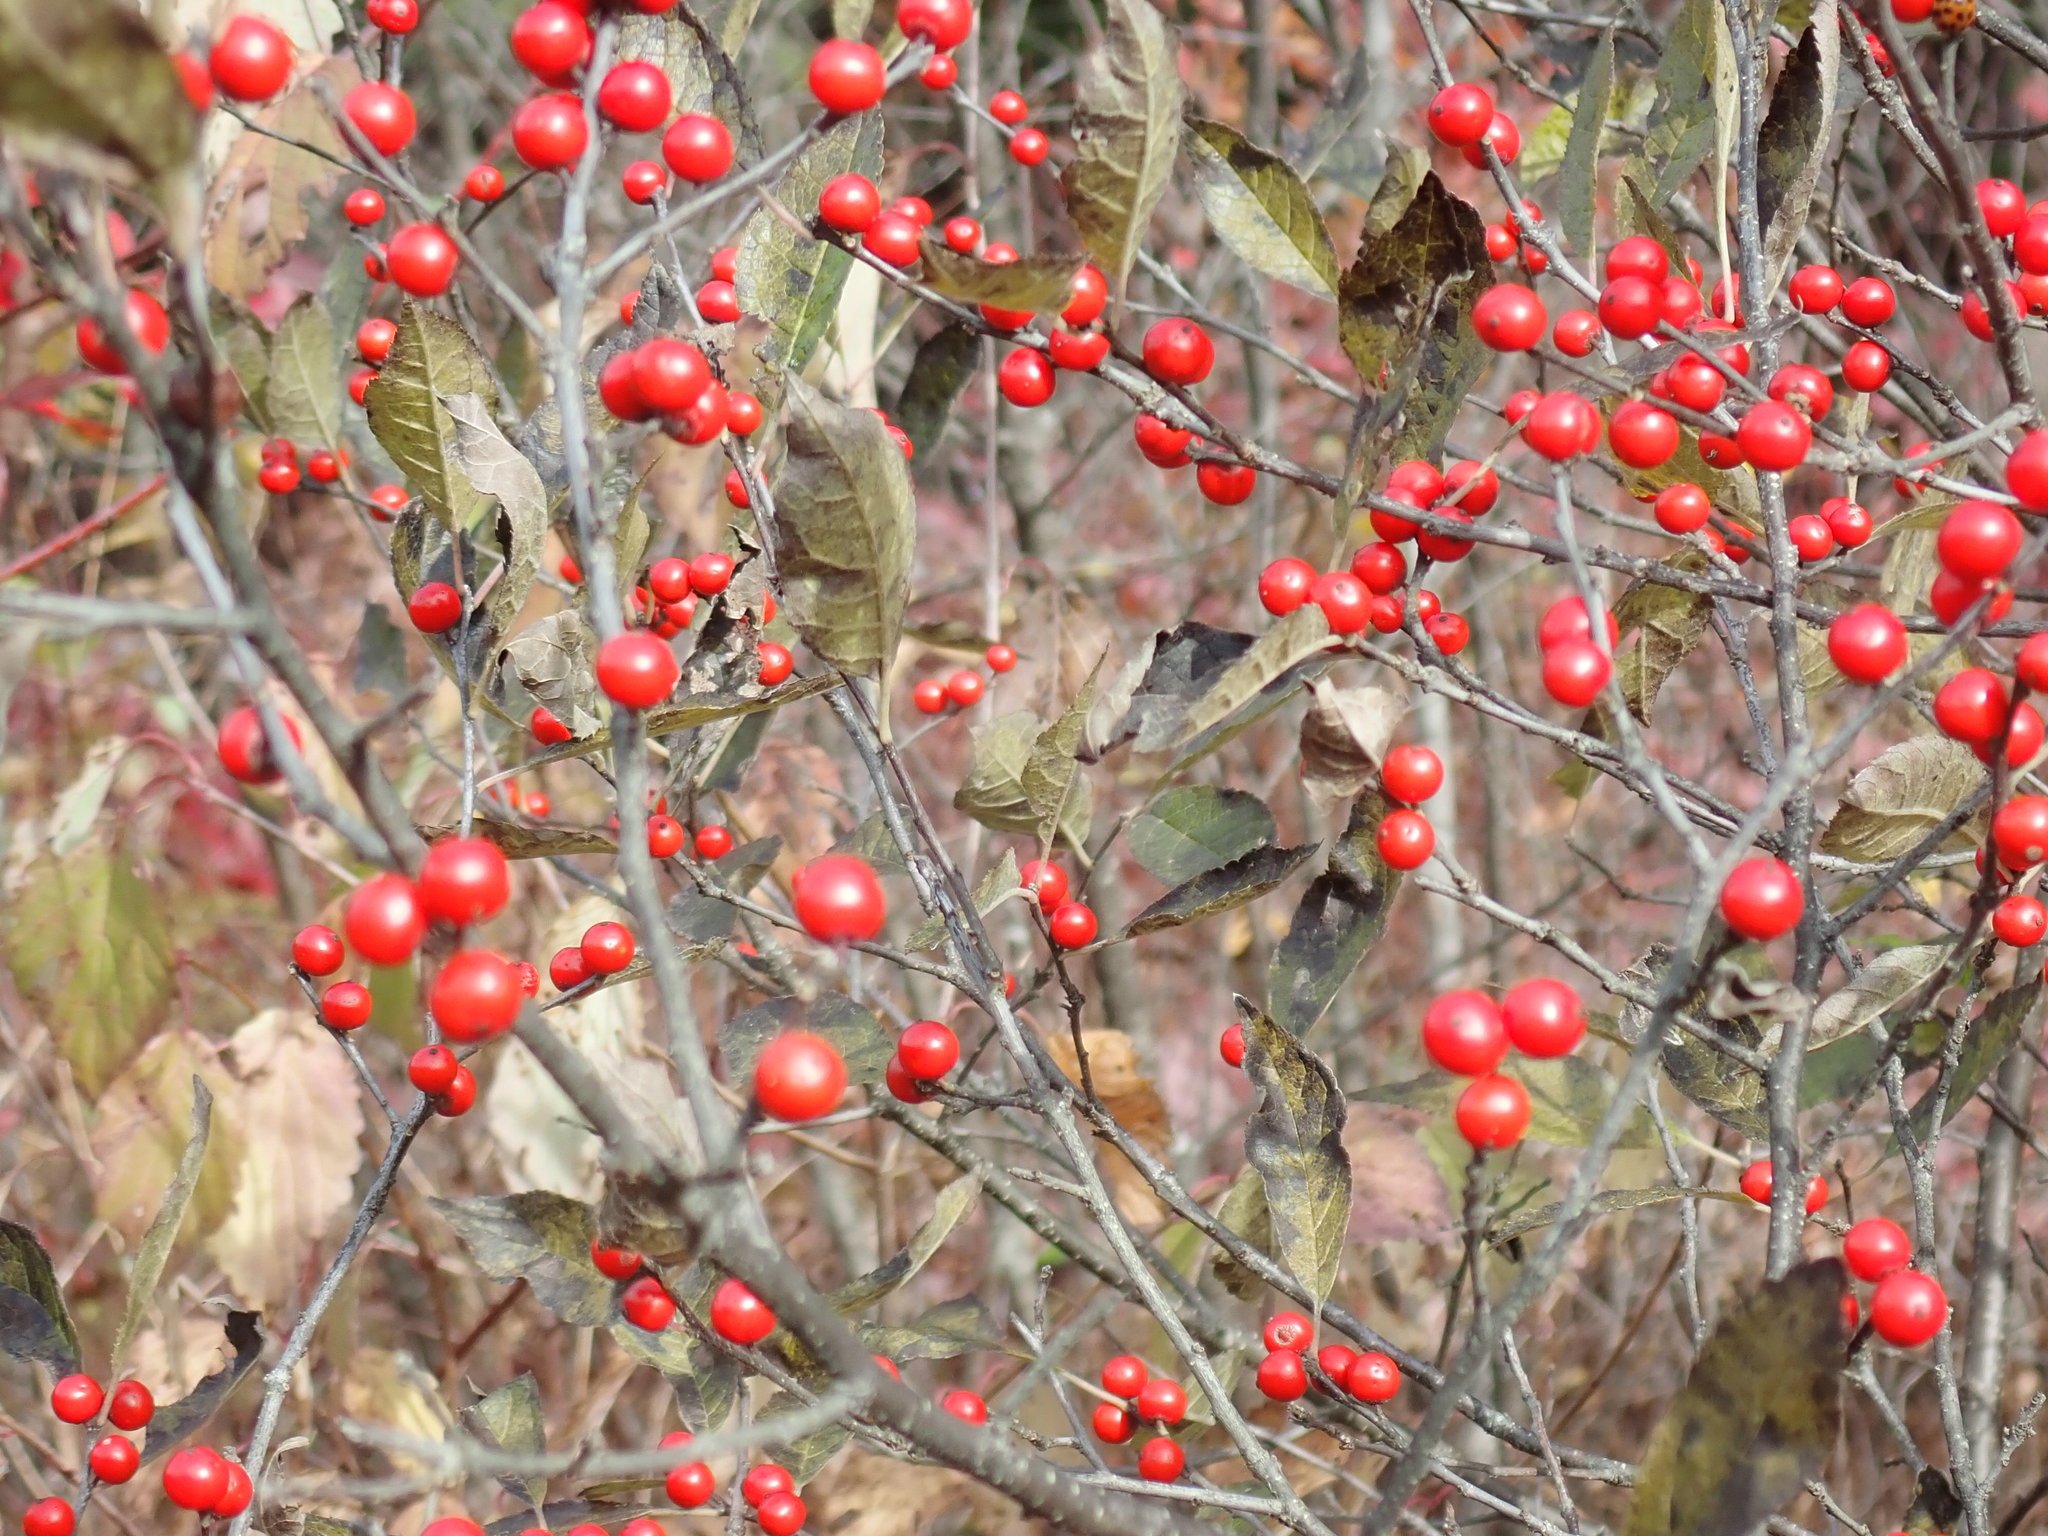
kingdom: Plantae
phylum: Tracheophyta
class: Magnoliopsida
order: Aquifoliales
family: Aquifoliaceae
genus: Ilex
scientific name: Ilex verticillata
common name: Virginia winterberry
